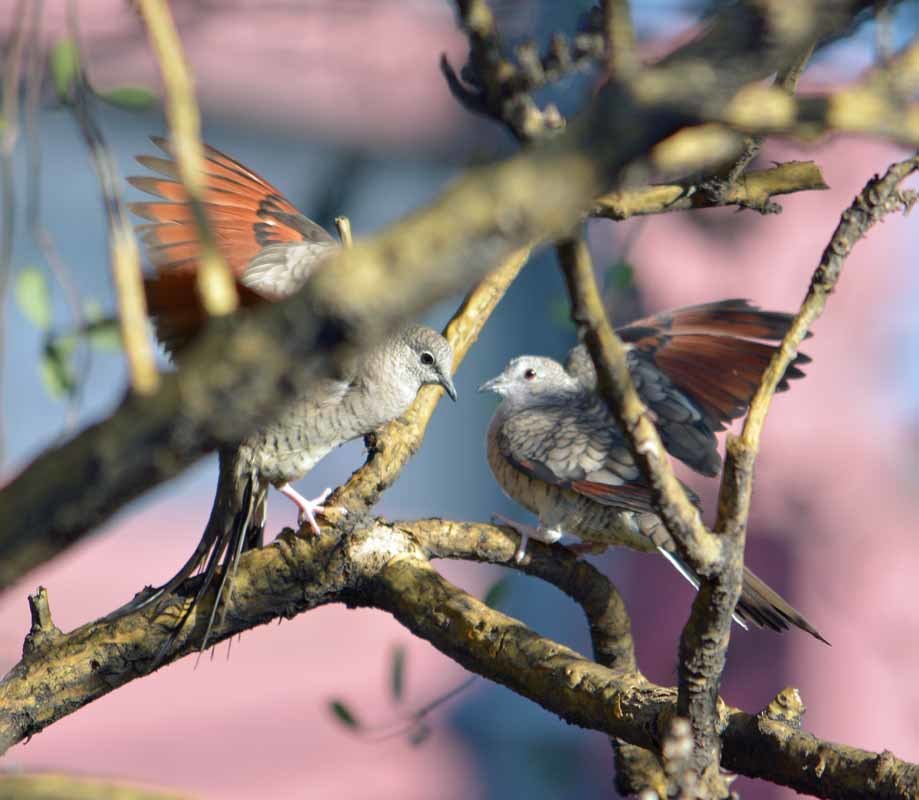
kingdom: Animalia
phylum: Chordata
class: Aves
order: Columbiformes
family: Columbidae
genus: Columbina
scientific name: Columbina inca
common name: Inca dove
